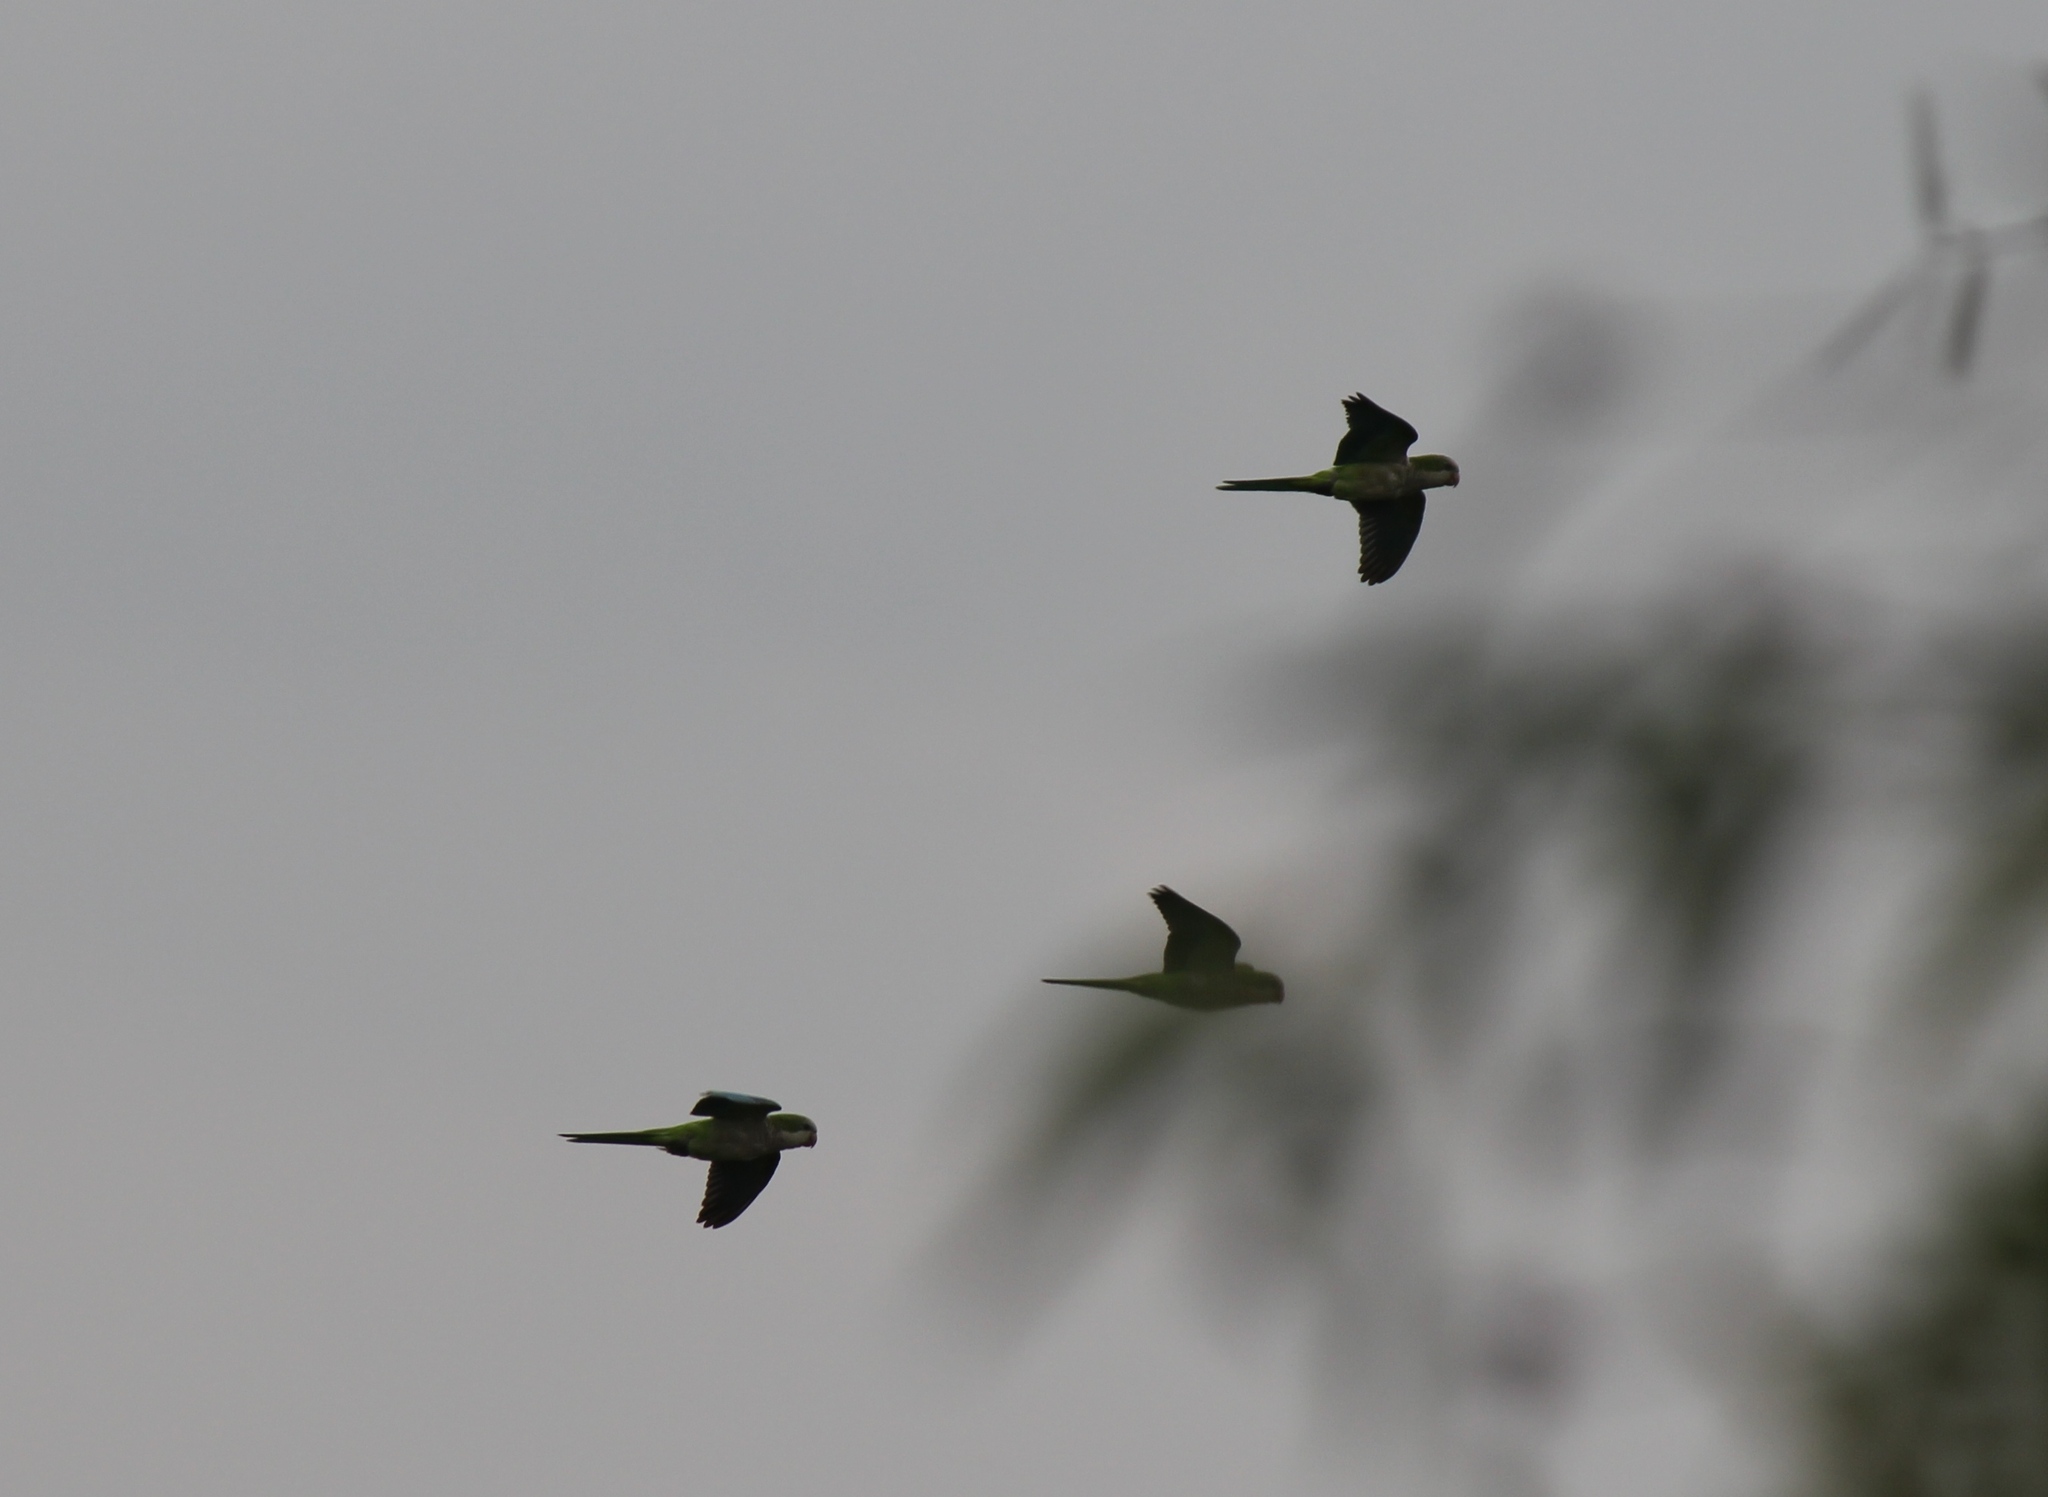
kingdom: Animalia
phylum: Chordata
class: Aves
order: Psittaciformes
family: Psittacidae
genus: Myiopsitta
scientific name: Myiopsitta monachus
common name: Monk parakeet
